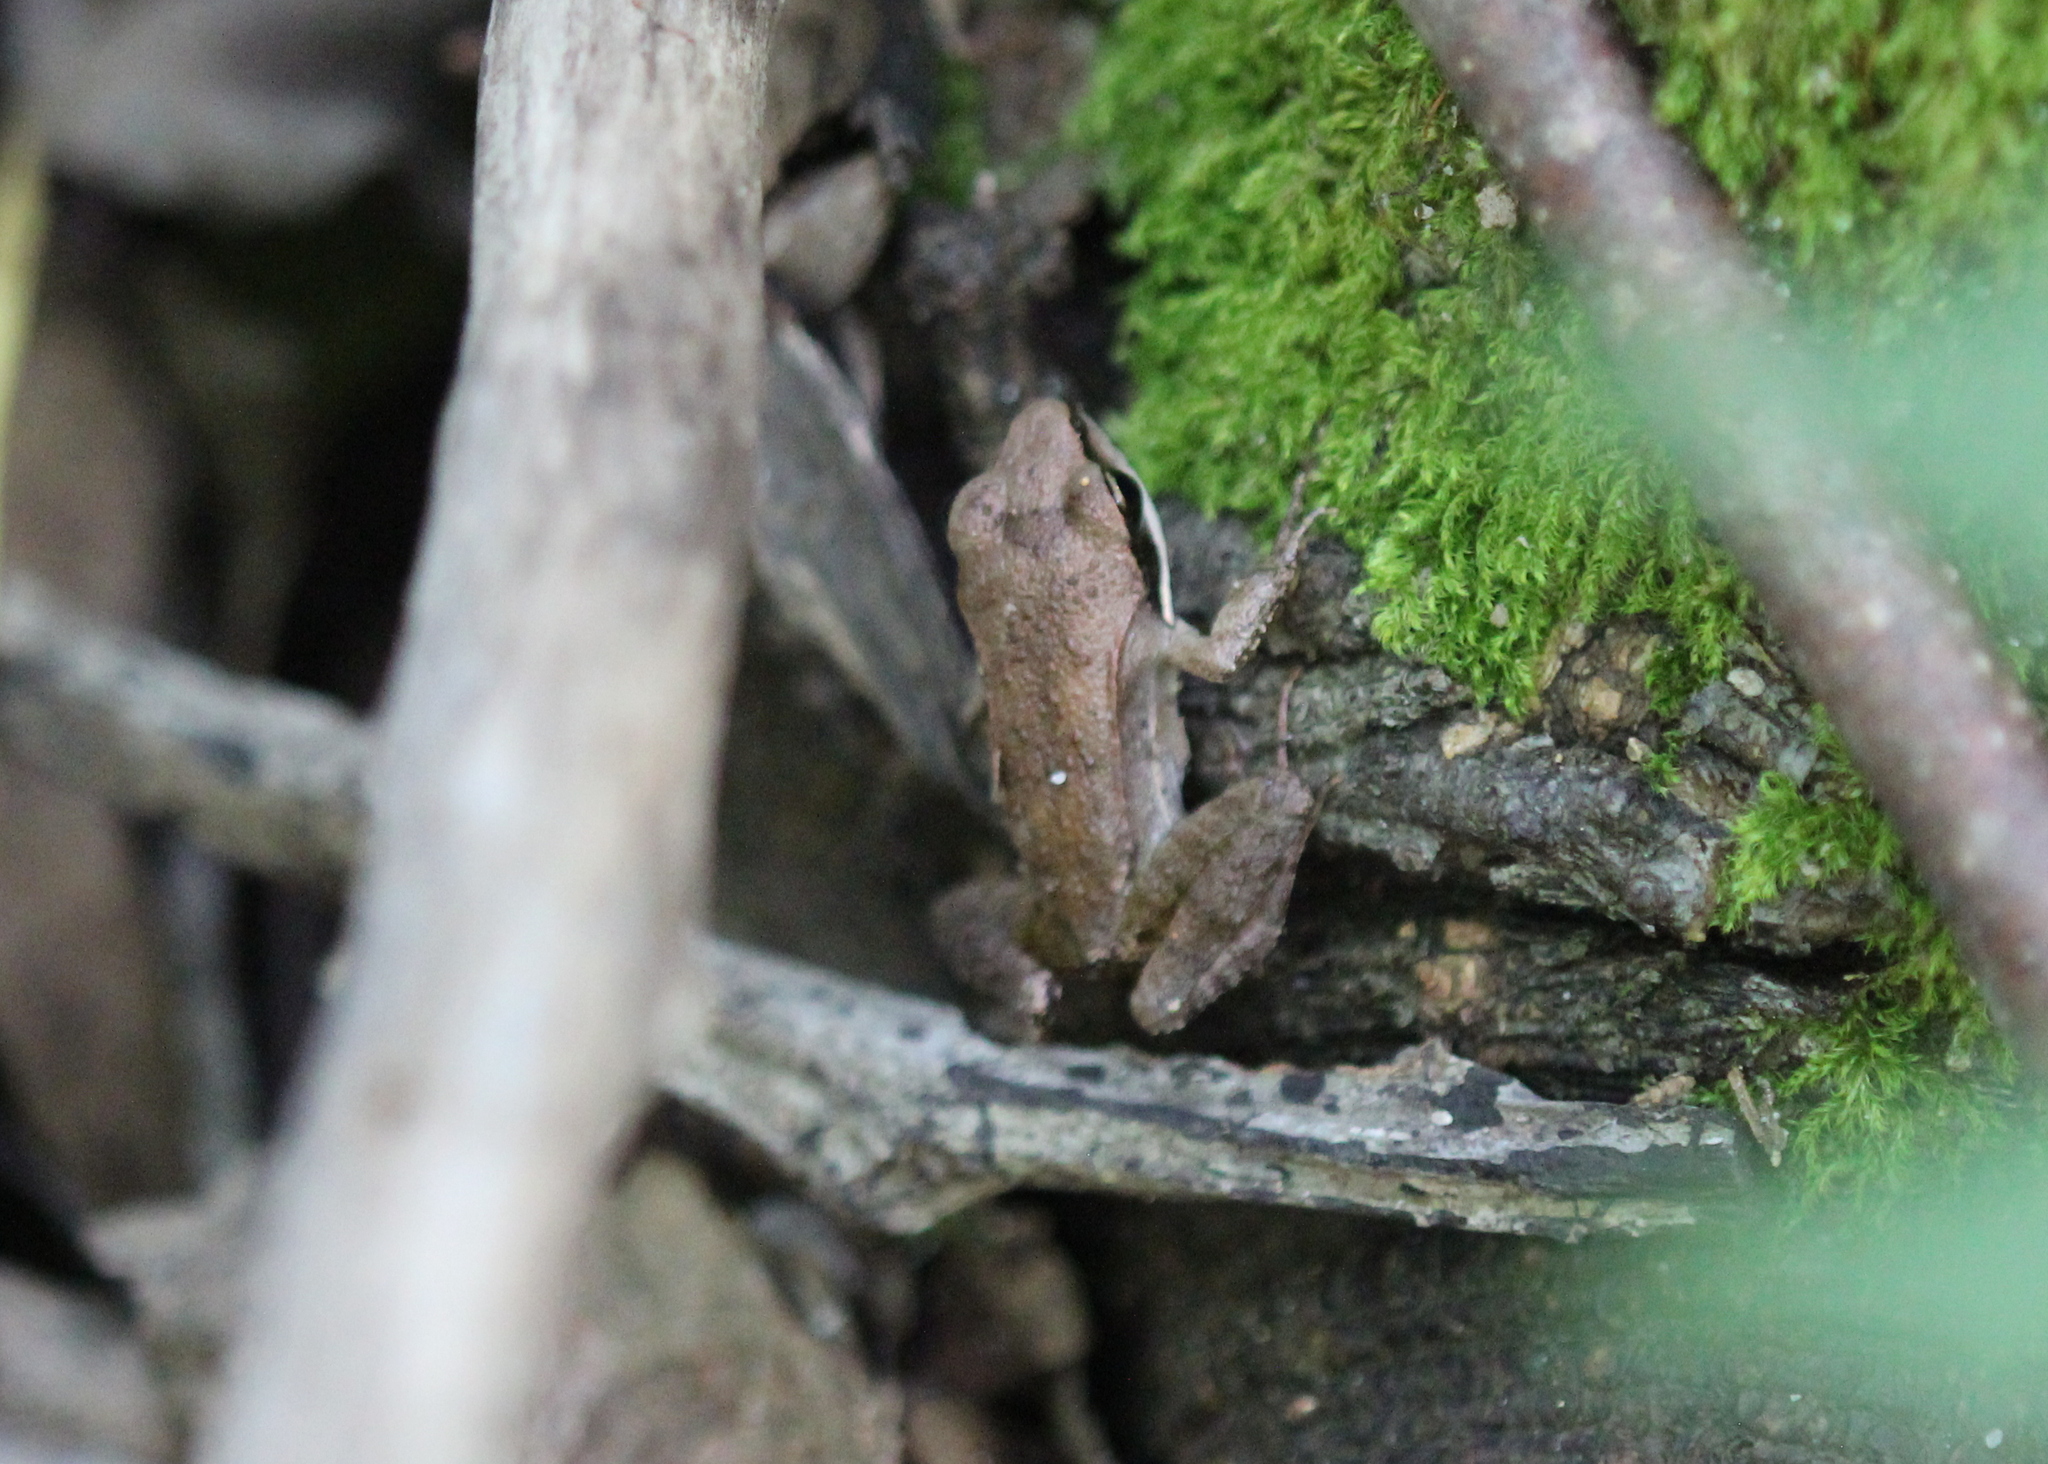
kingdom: Animalia
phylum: Chordata
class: Amphibia
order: Anura
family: Ranidae
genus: Lithobates
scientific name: Lithobates sylvaticus
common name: Wood frog
